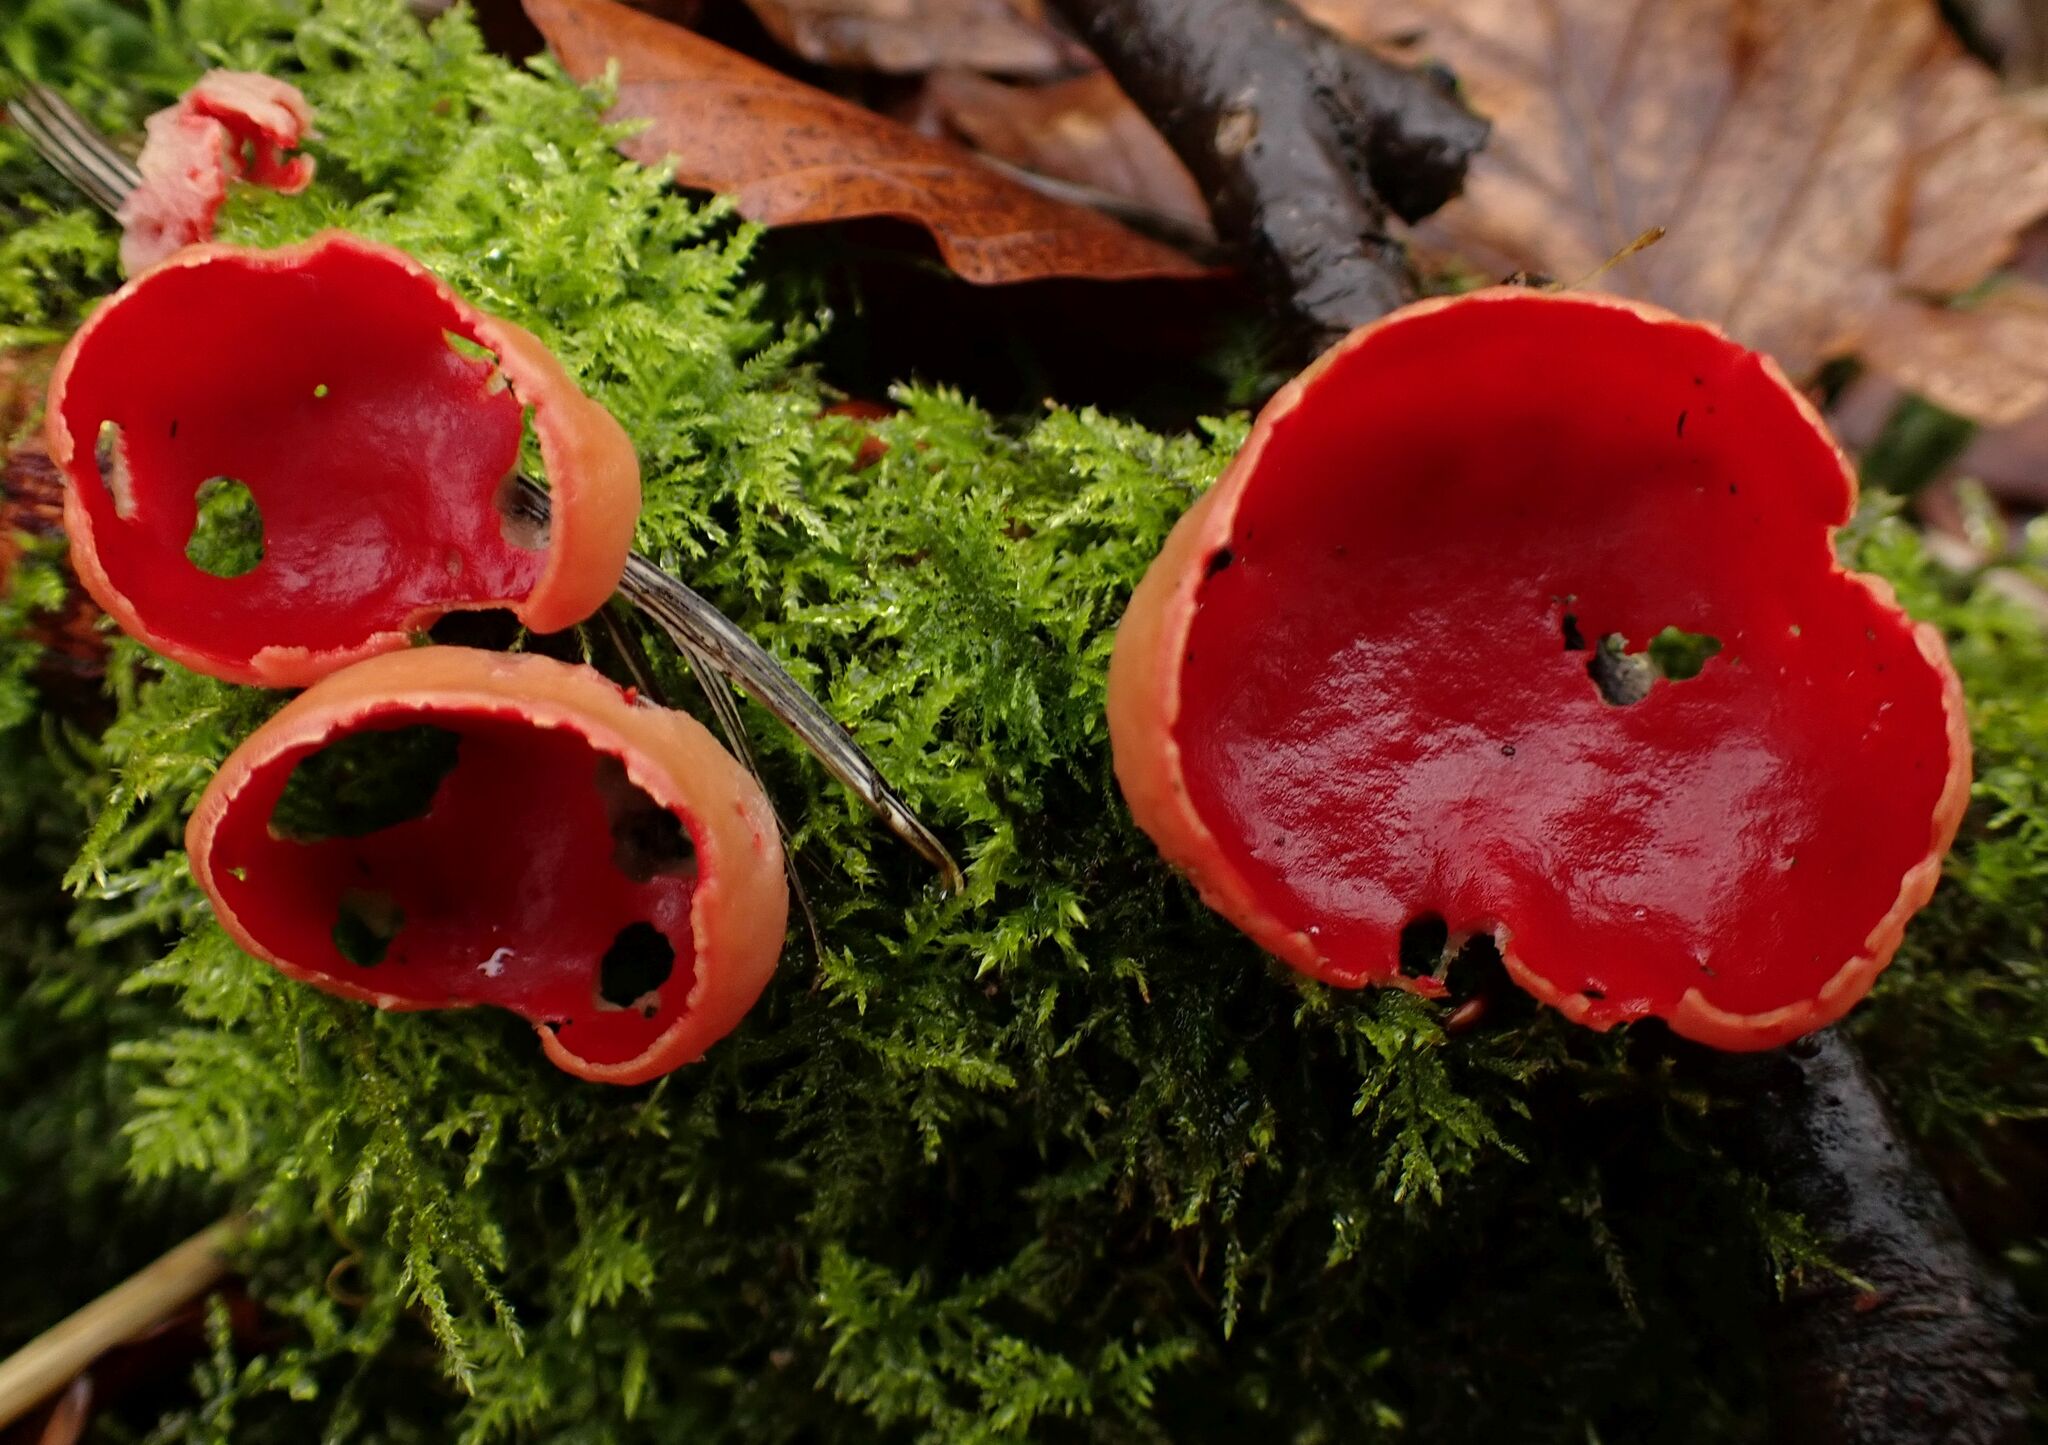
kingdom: Fungi
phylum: Ascomycota
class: Pezizomycetes
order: Pezizales
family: Sarcoscyphaceae
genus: Sarcoscypha
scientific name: Sarcoscypha
